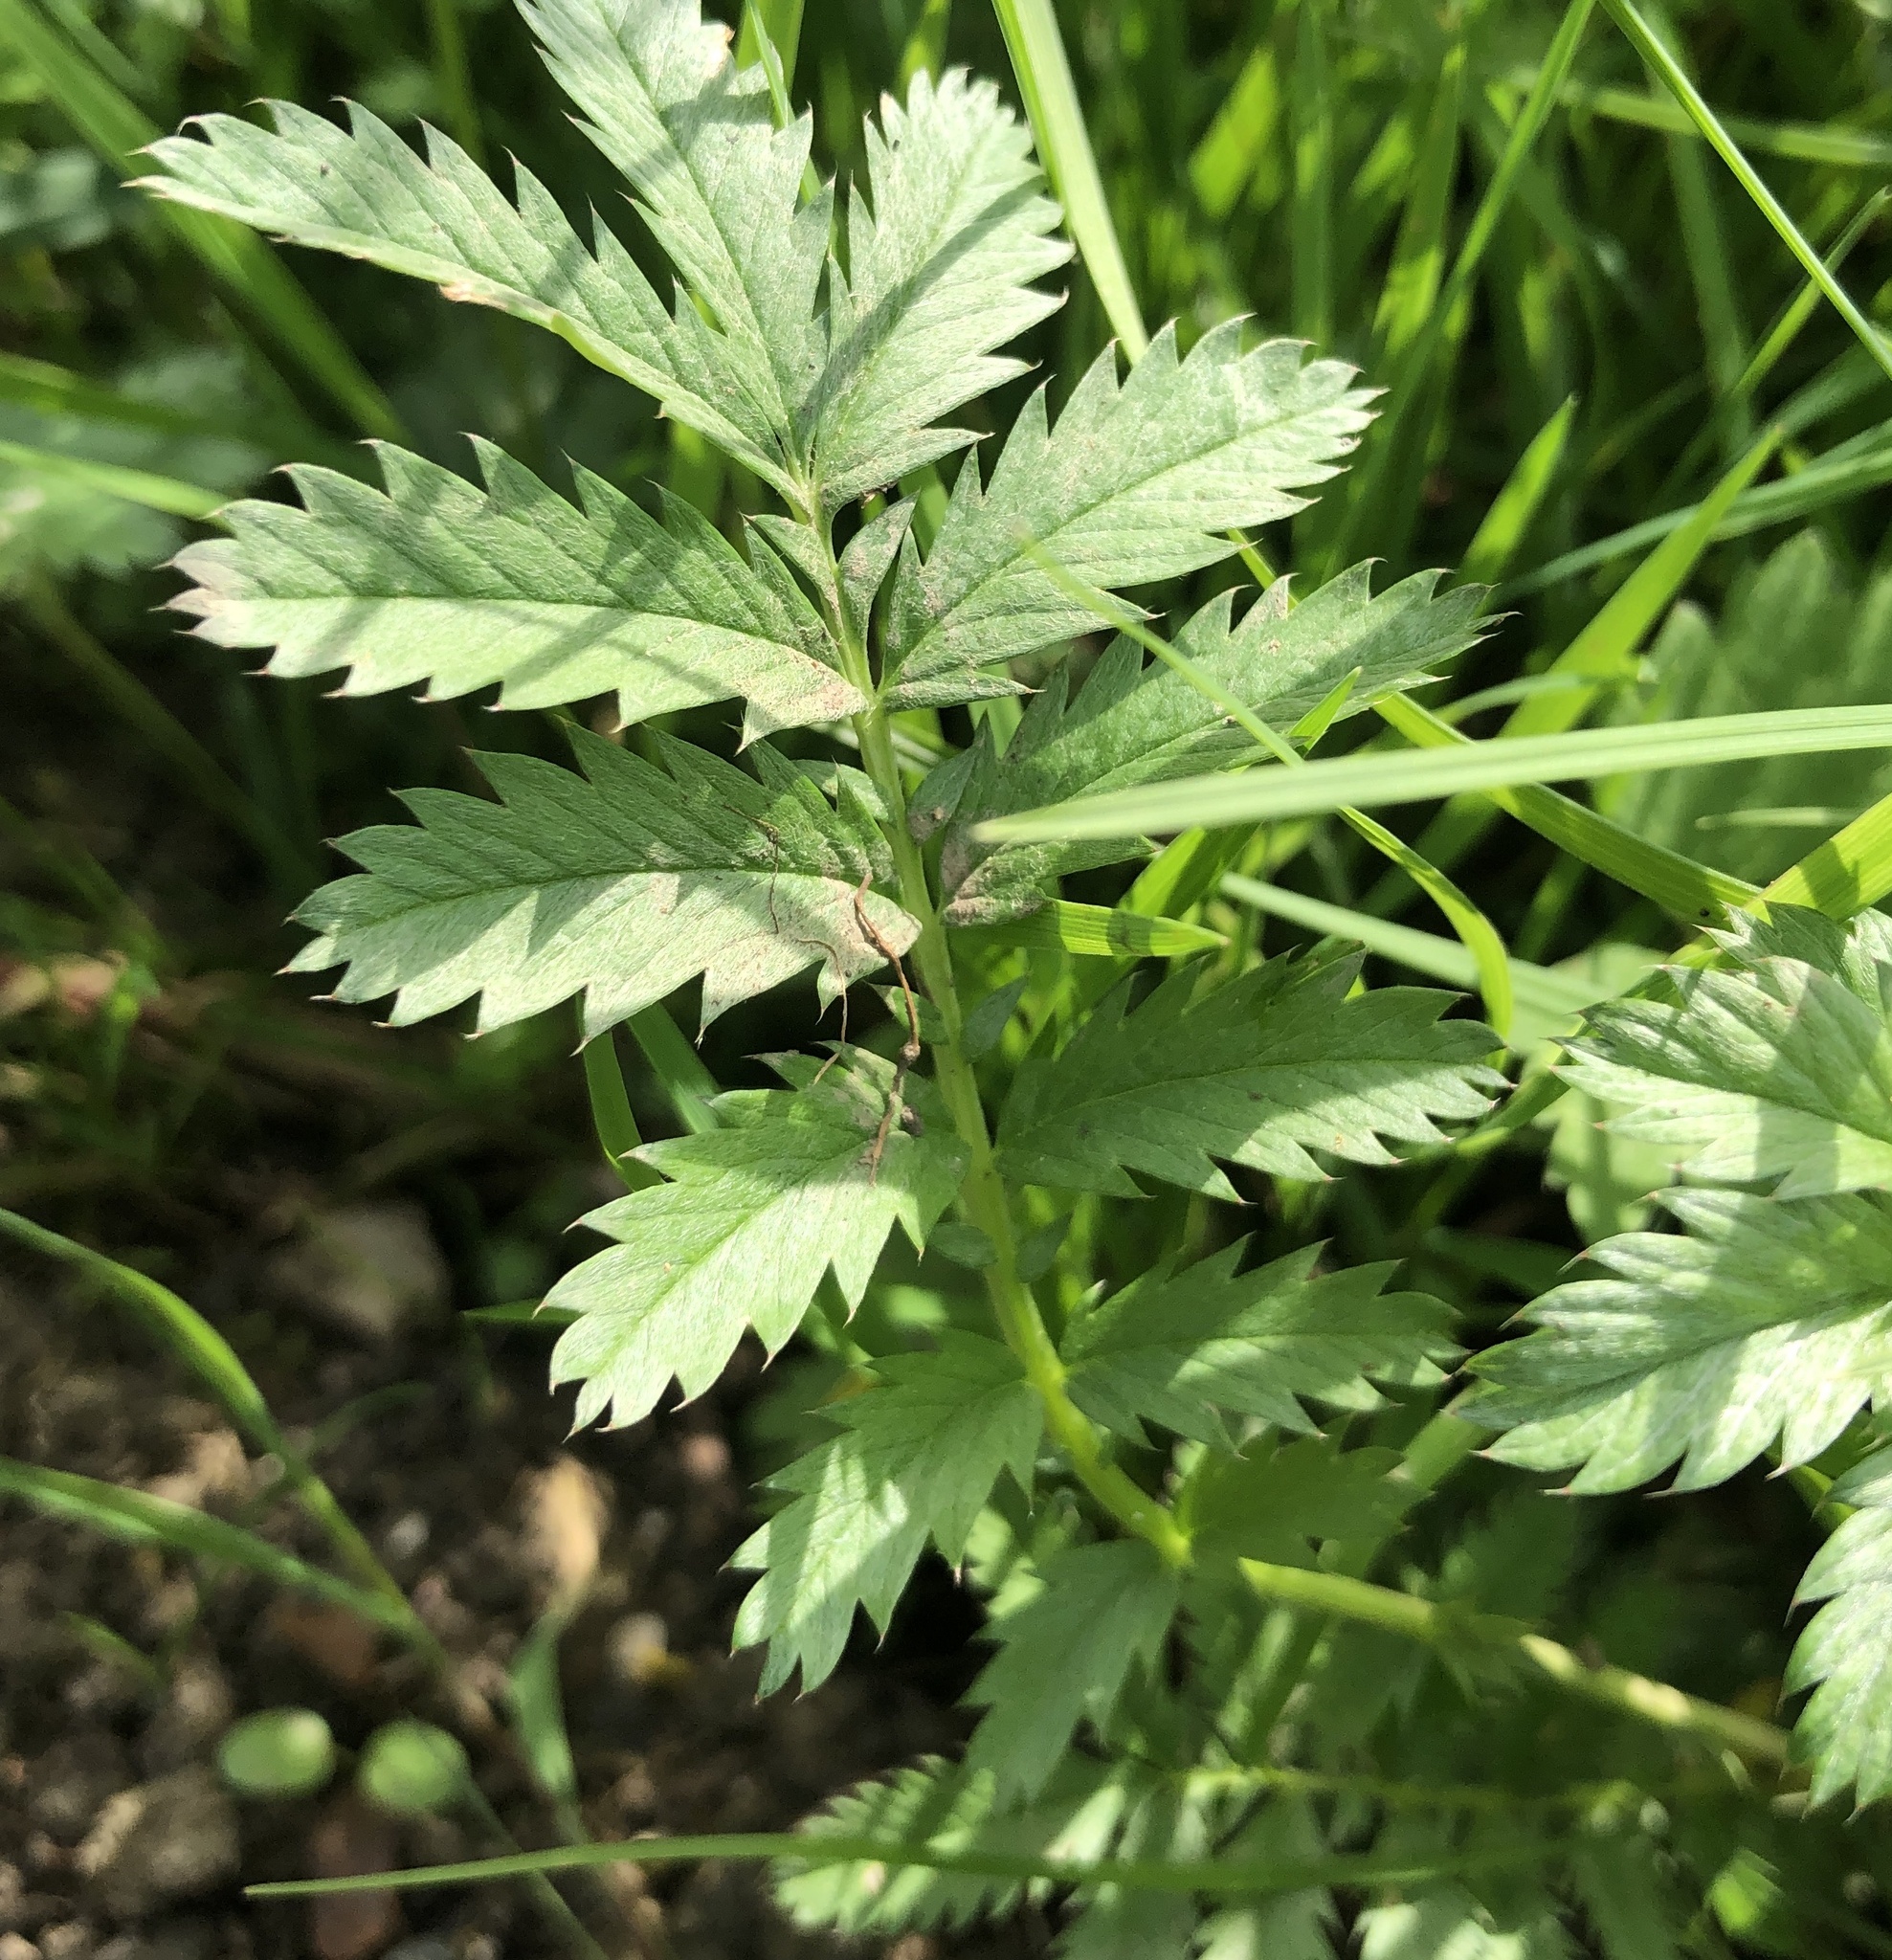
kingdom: Plantae
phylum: Tracheophyta
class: Magnoliopsida
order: Rosales
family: Rosaceae
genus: Argentina
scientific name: Argentina anserina
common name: Common silverweed
